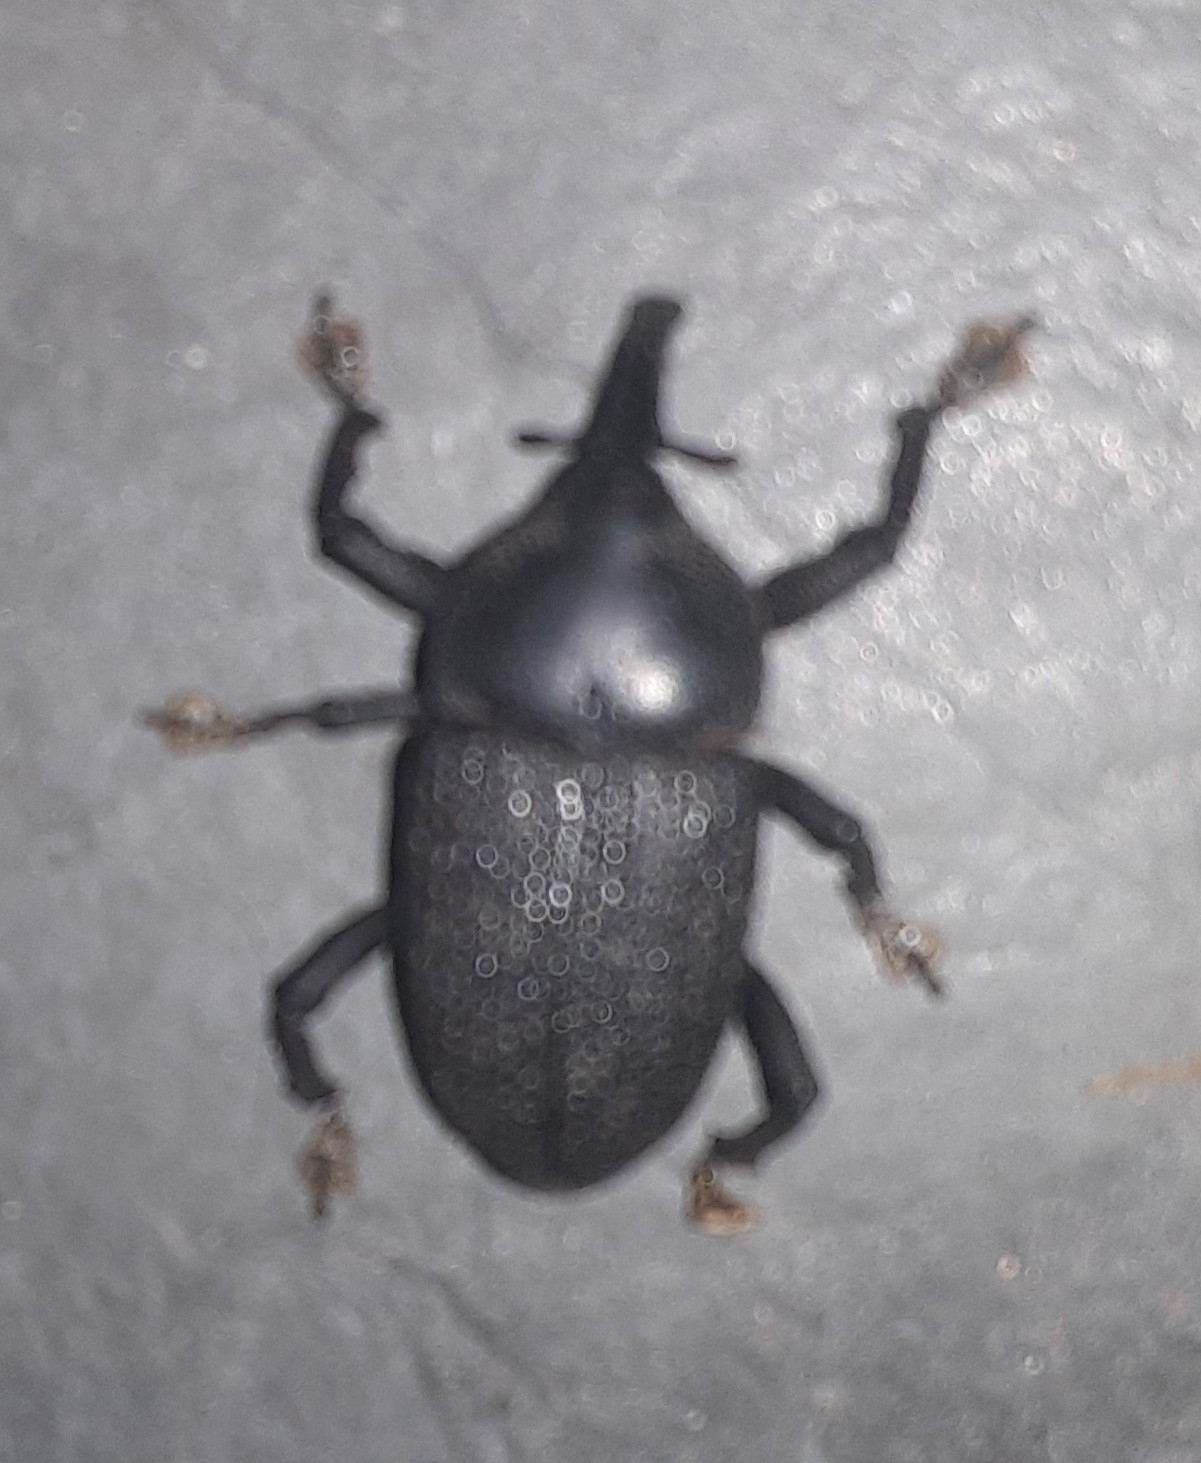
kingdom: Animalia
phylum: Arthropoda
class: Insecta
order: Coleoptera
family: Curculionidae
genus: Homalinotus
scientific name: Homalinotus coriaceus
